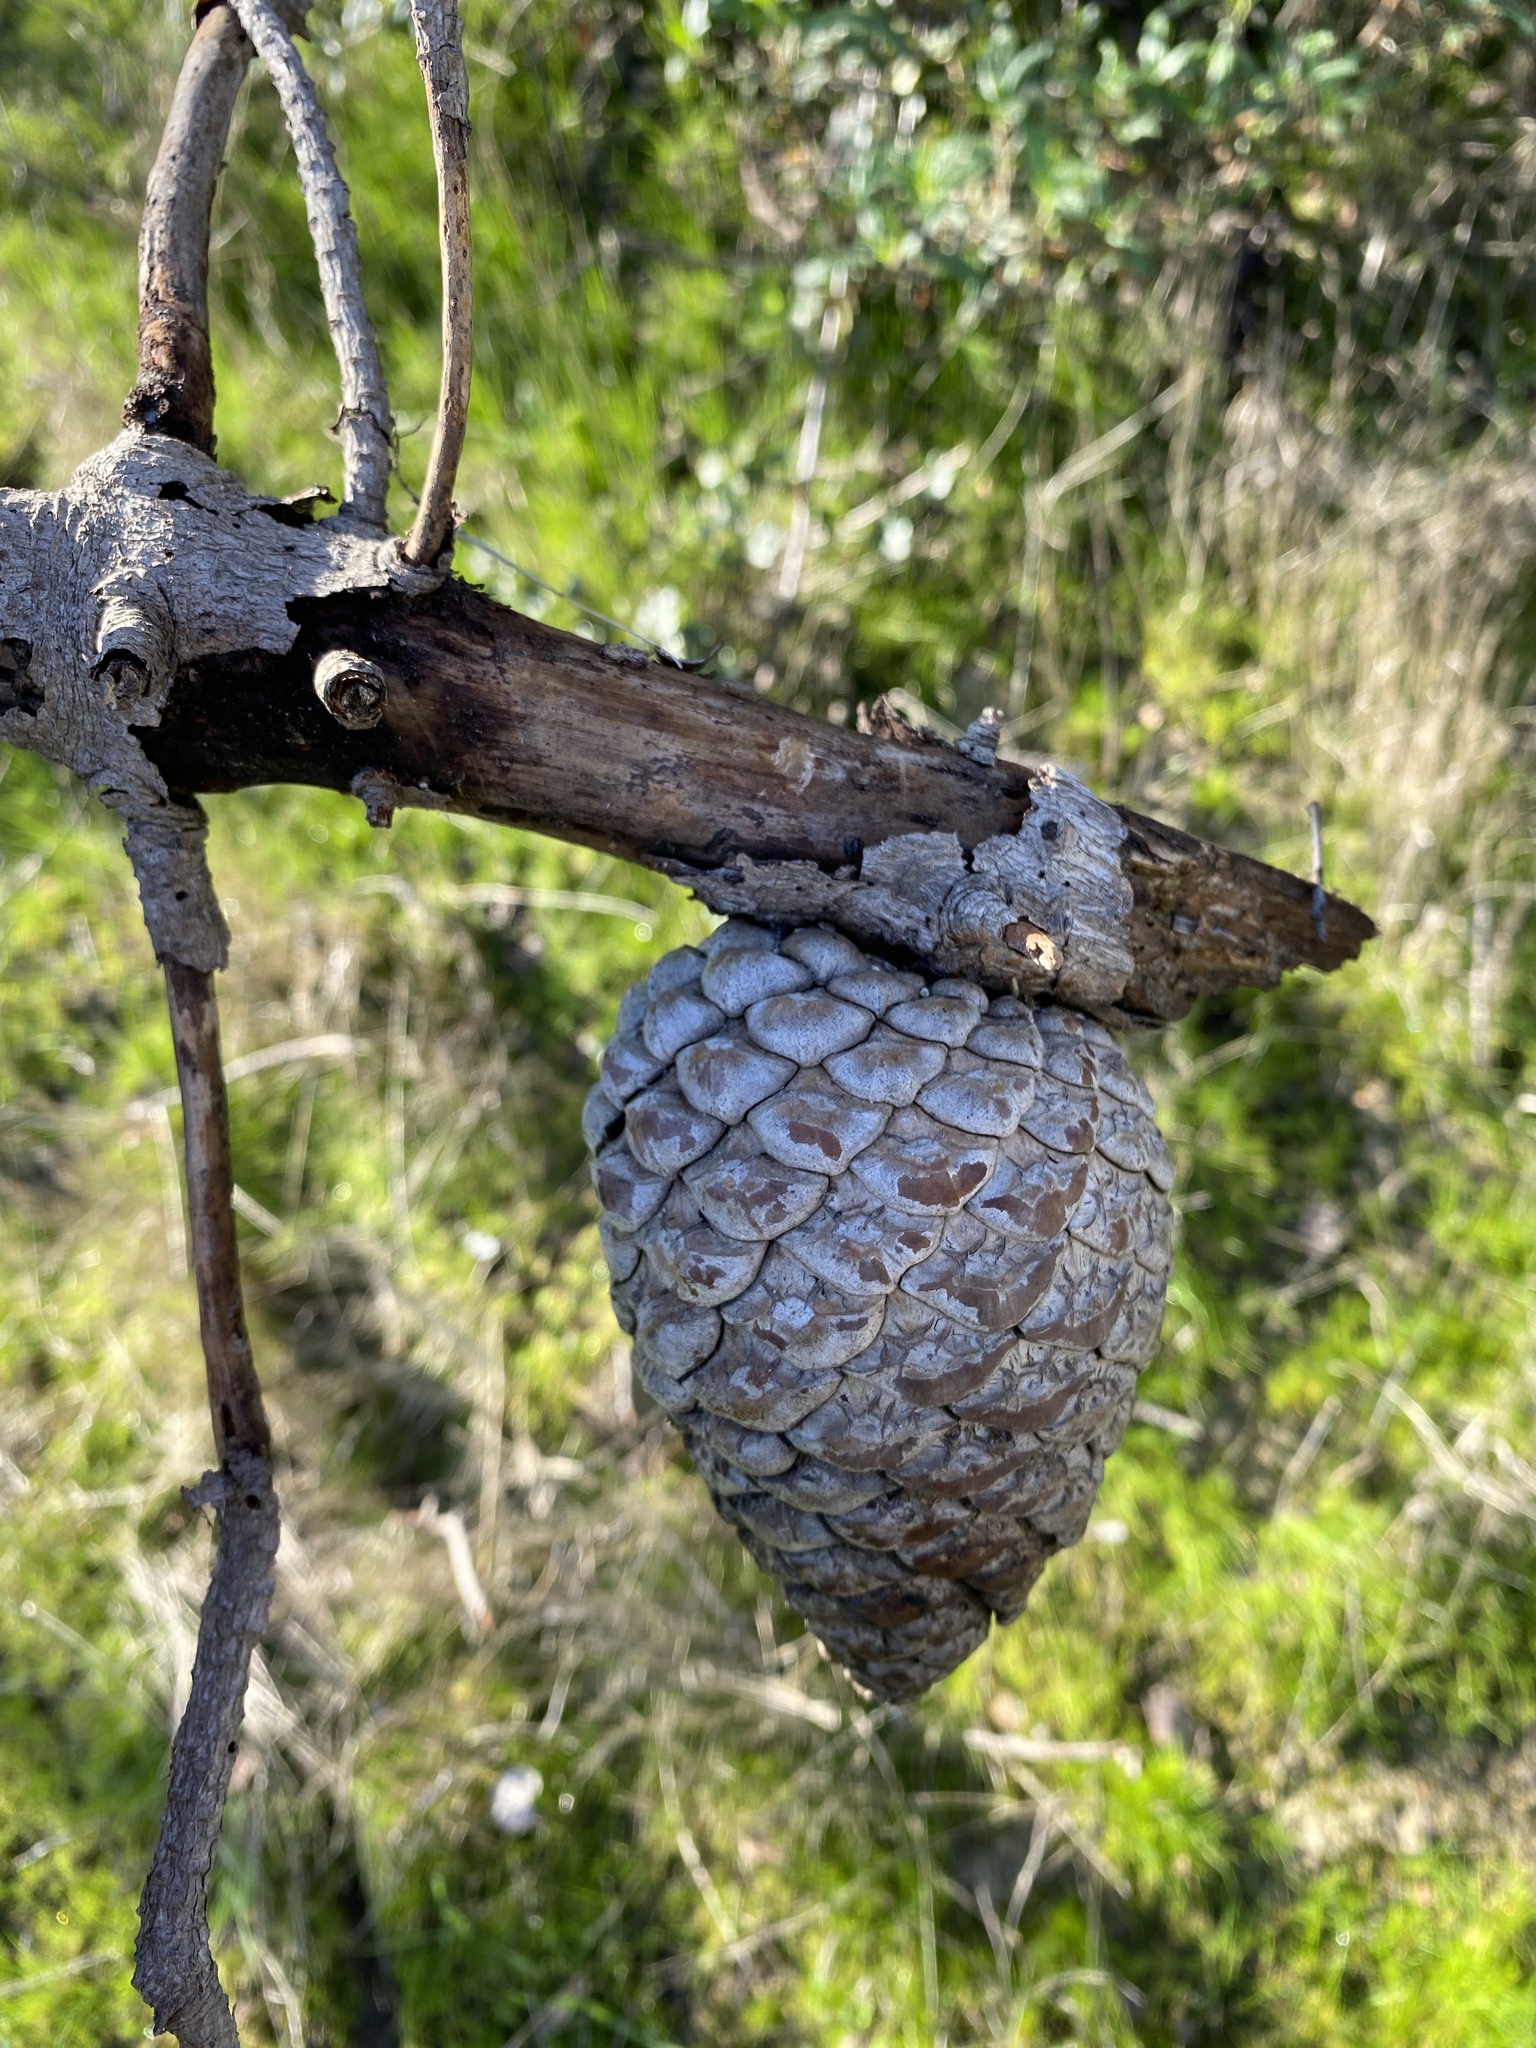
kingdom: Plantae
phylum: Tracheophyta
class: Pinopsida
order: Pinales
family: Pinaceae
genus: Pinus
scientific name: Pinus radiata
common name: Monterey pine
